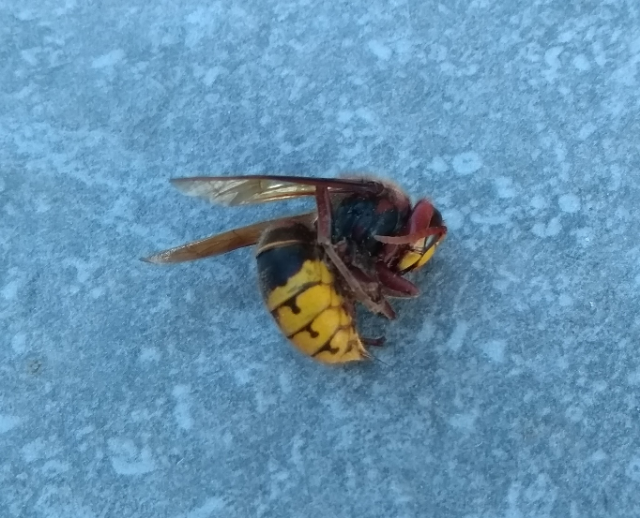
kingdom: Animalia
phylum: Arthropoda
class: Insecta
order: Hymenoptera
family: Vespidae
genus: Vespa
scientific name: Vespa crabro
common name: Hornet
